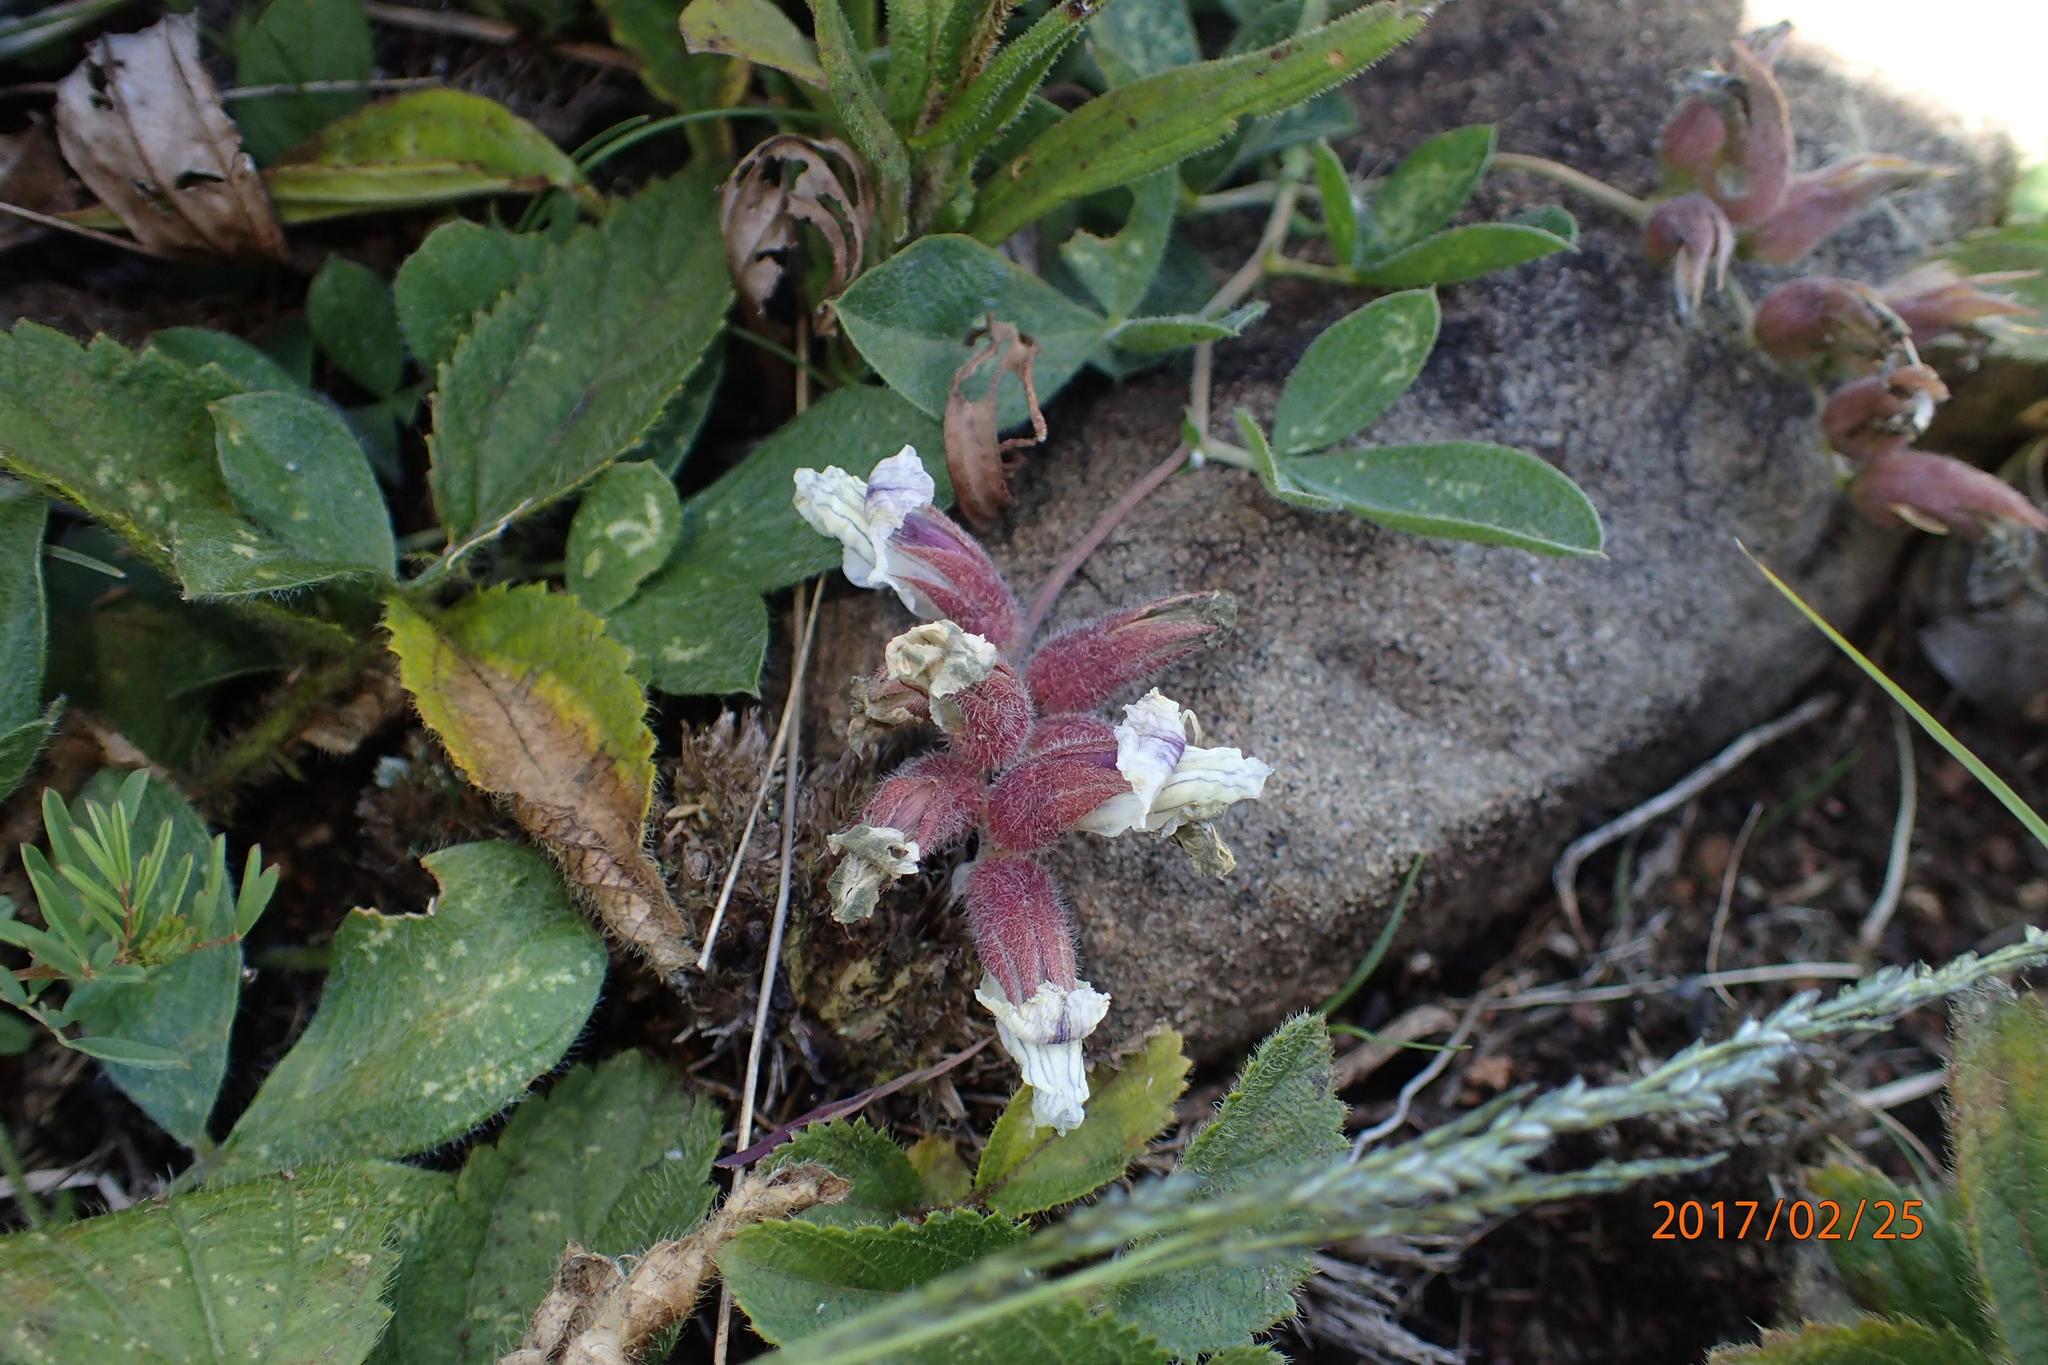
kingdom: Plantae
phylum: Tracheophyta
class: Magnoliopsida
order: Fabales
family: Fabaceae
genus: Pearsonia
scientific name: Pearsonia grandifolia
